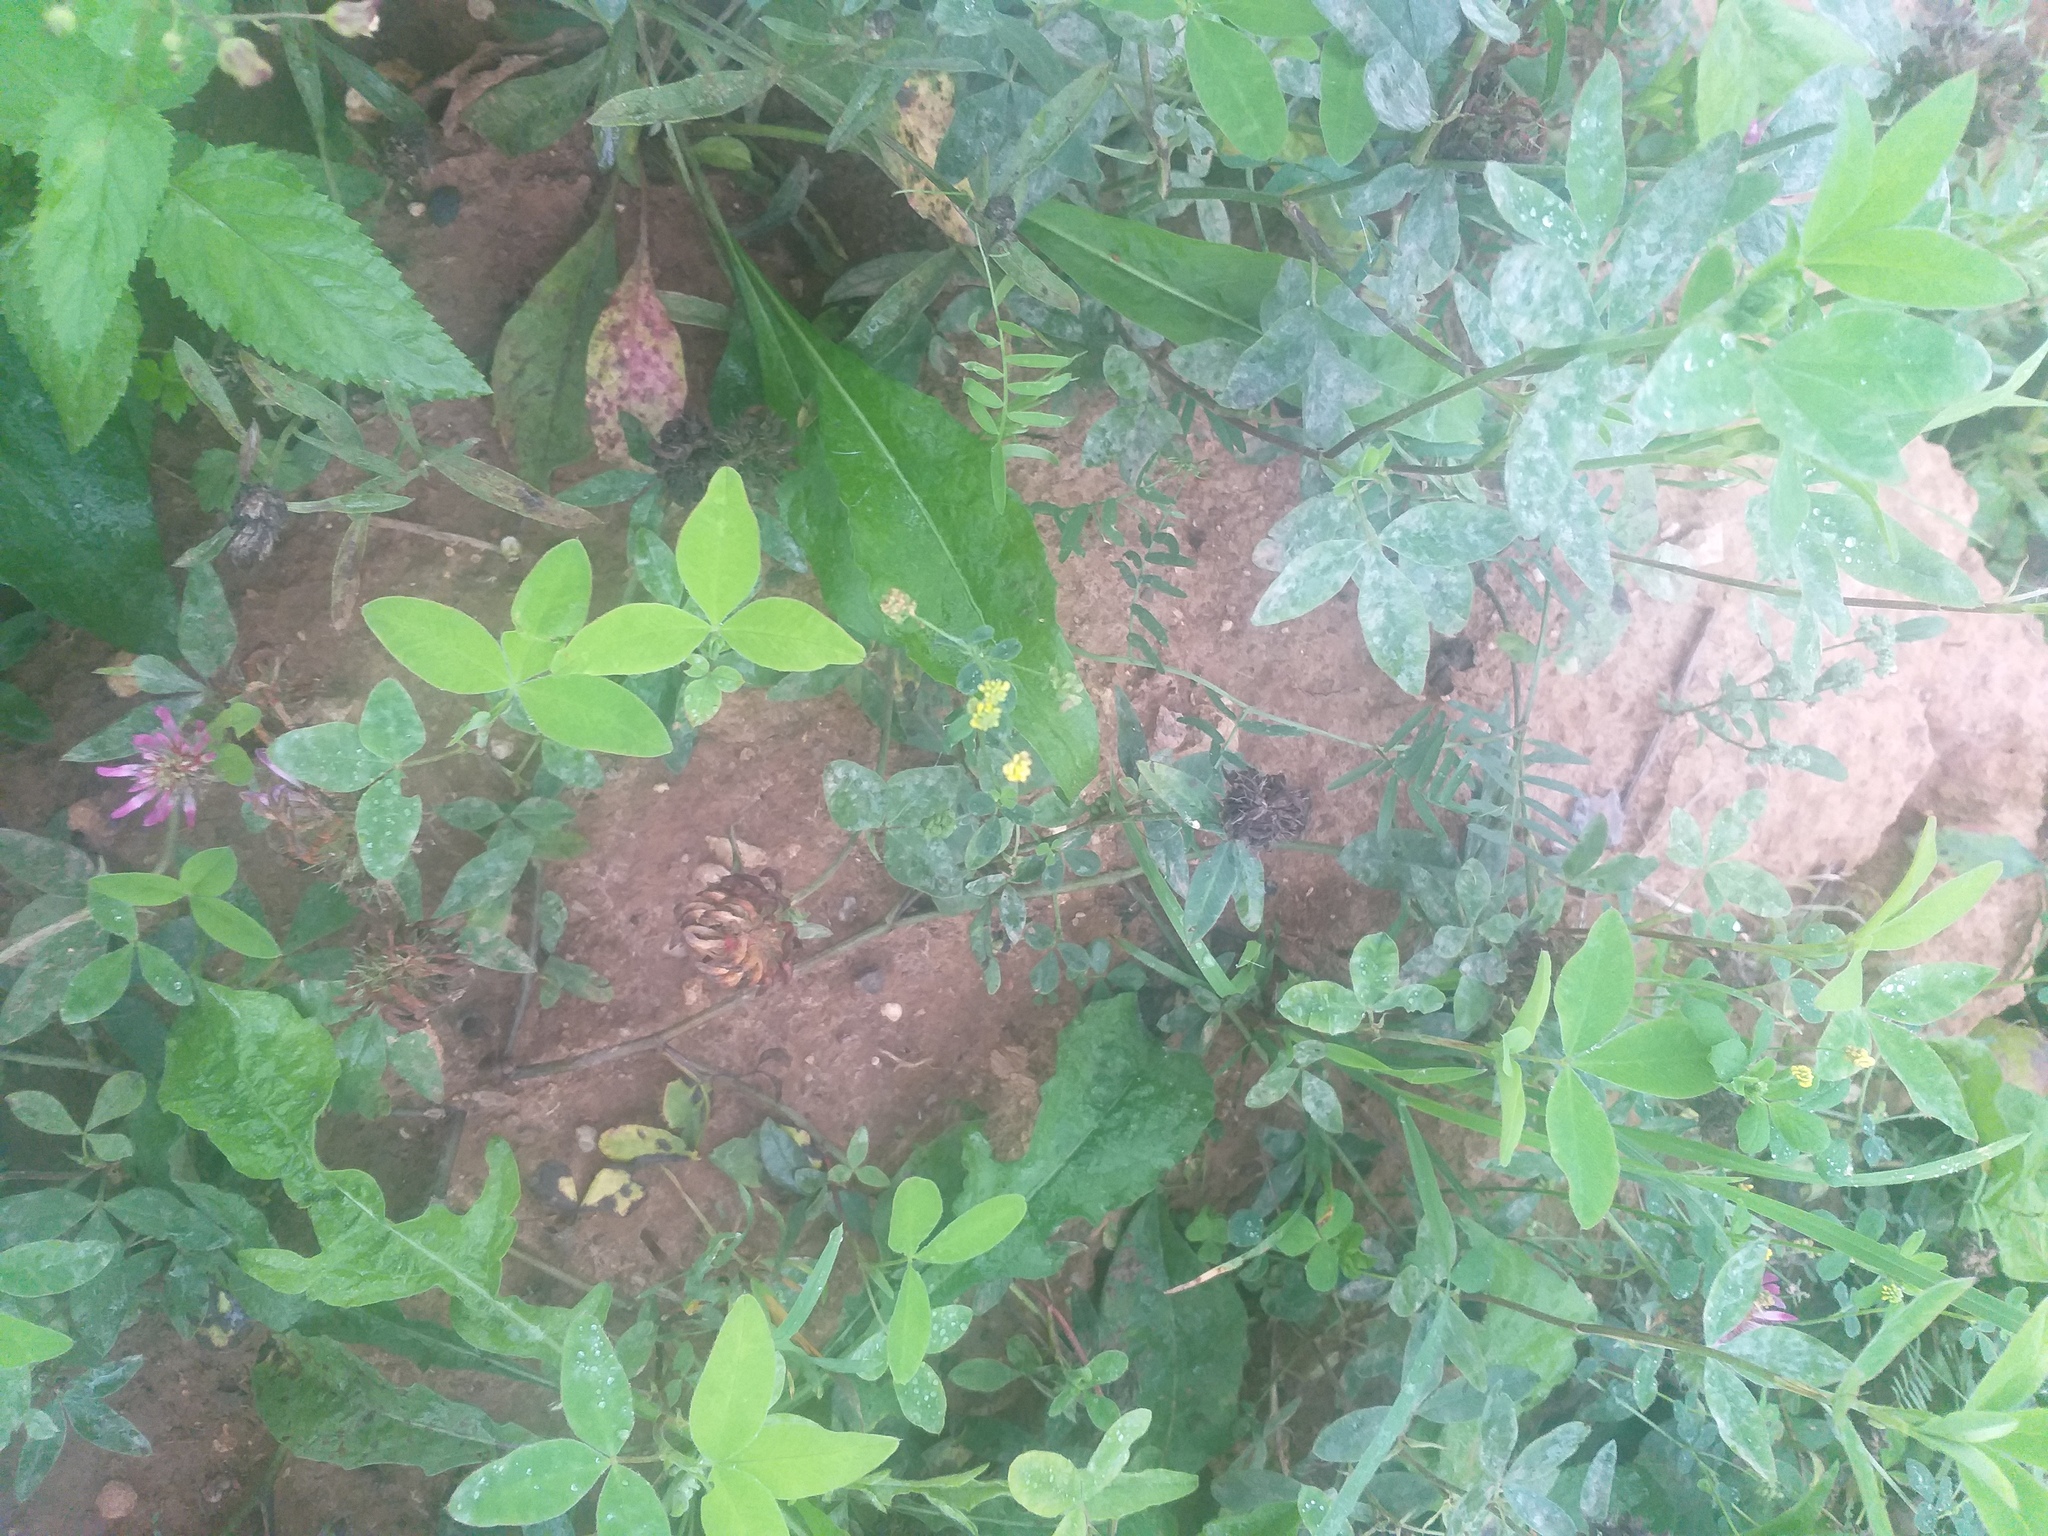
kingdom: Plantae
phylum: Tracheophyta
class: Magnoliopsida
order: Fabales
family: Fabaceae
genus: Medicago
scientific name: Medicago lupulina
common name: Black medick
